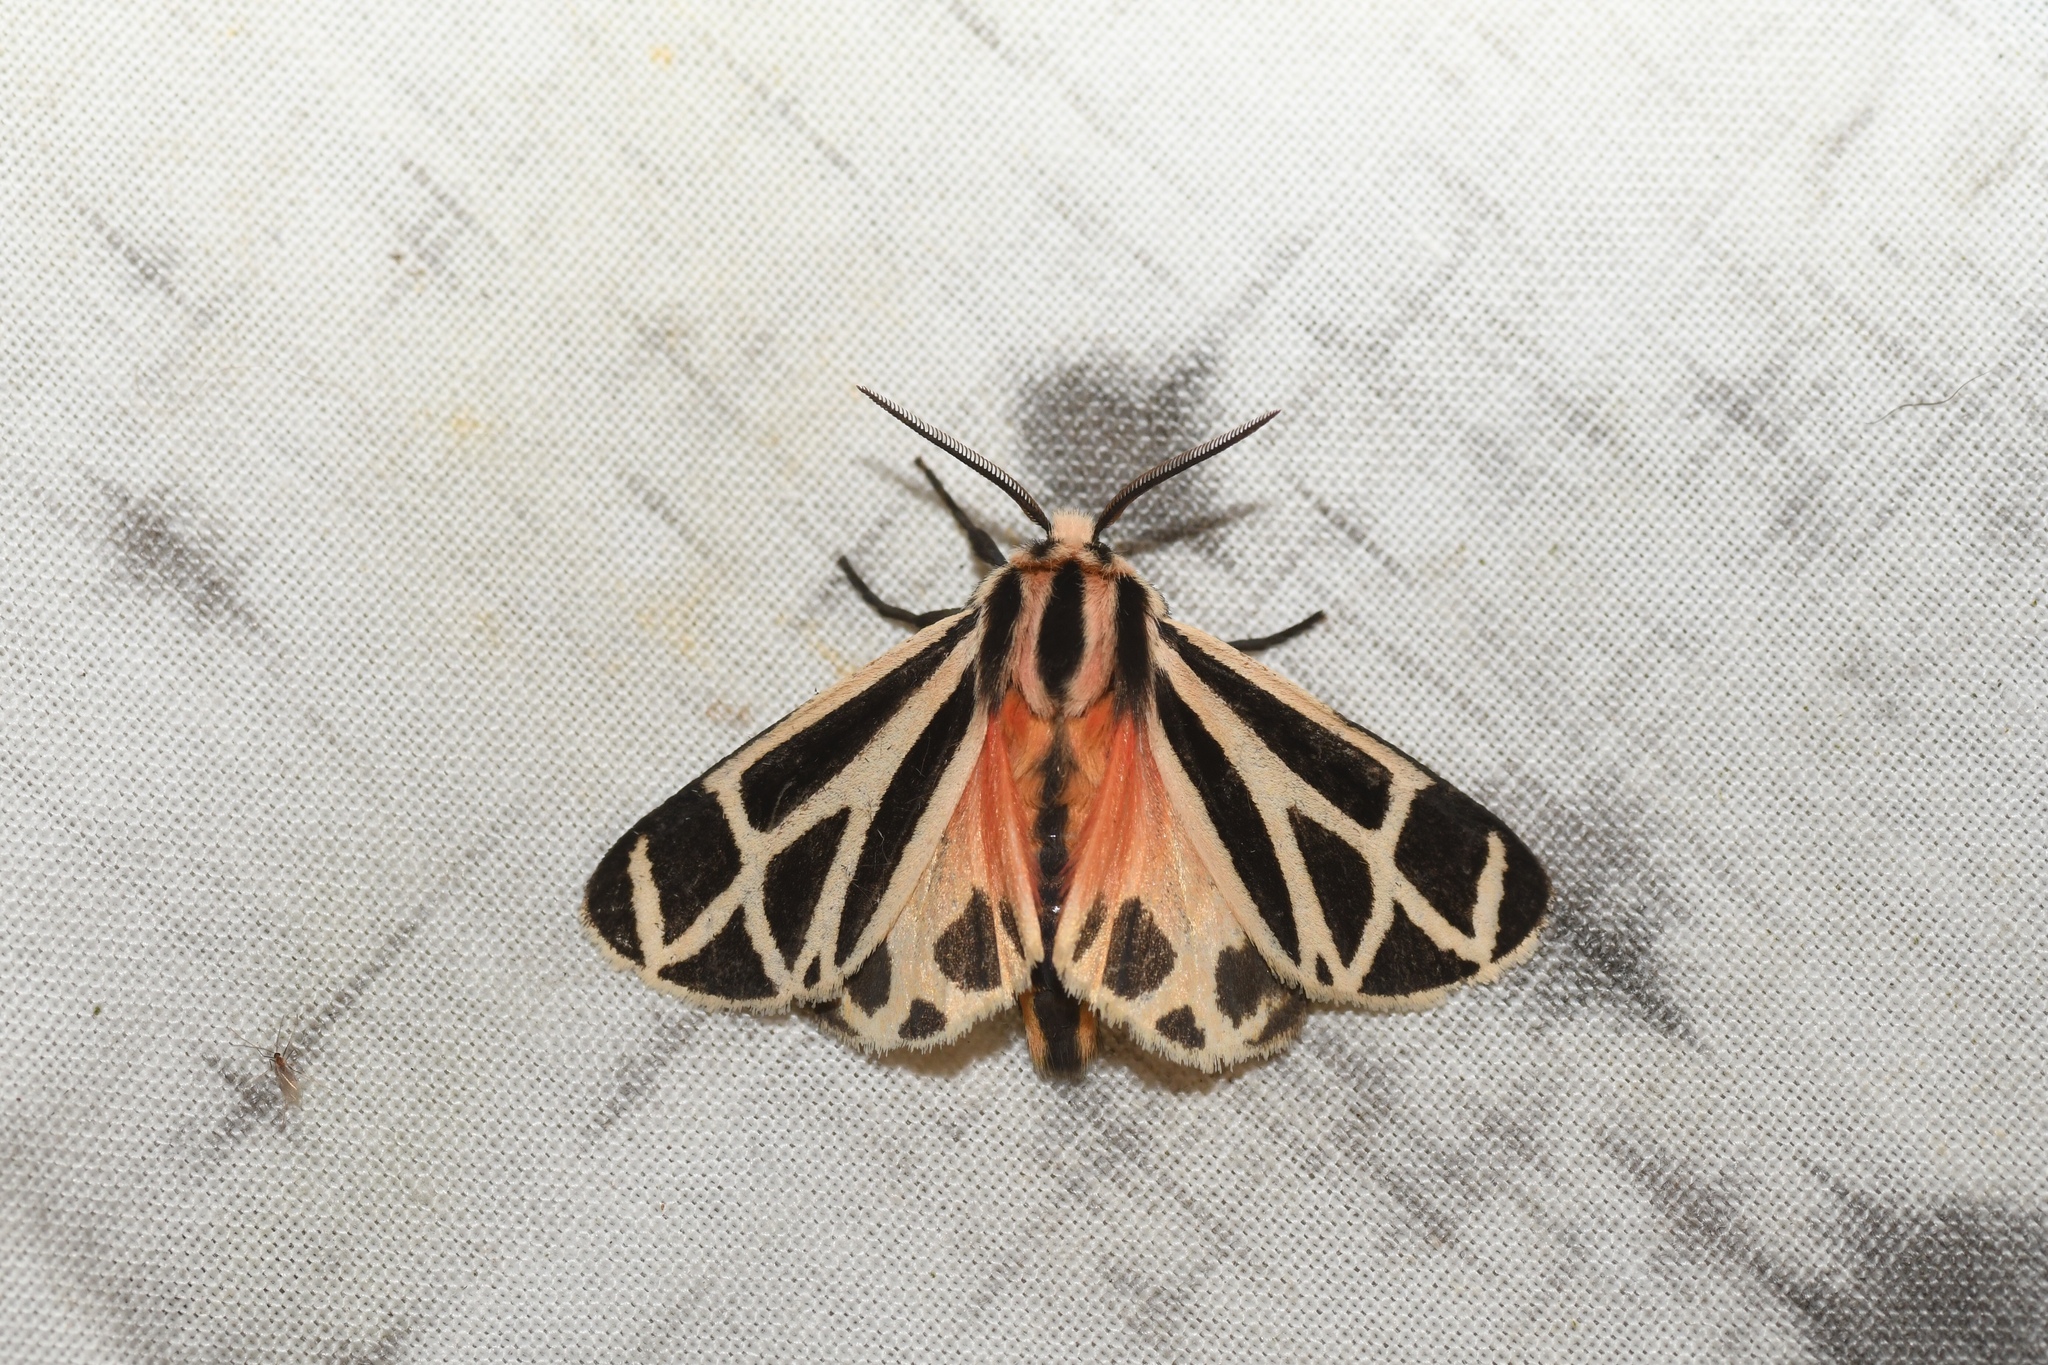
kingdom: Animalia
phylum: Arthropoda
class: Insecta
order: Lepidoptera
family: Erebidae
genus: Apantesis
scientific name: Apantesis phalerata
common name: Harnessed tiger moth
